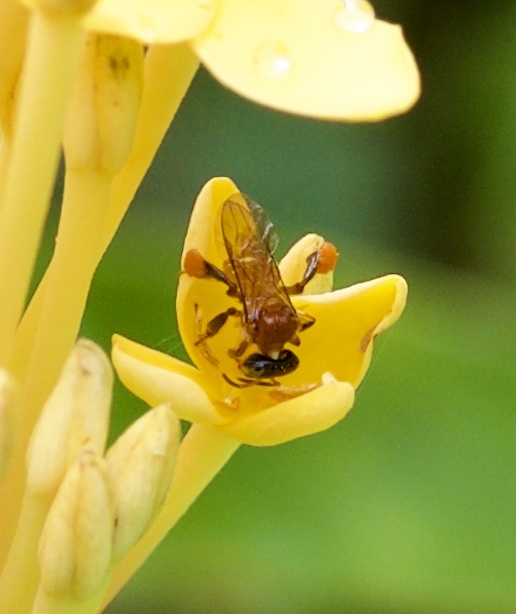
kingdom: Animalia
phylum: Arthropoda
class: Insecta
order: Hymenoptera
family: Apidae
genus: Tetragonula
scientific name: Tetragonula melanocephala
